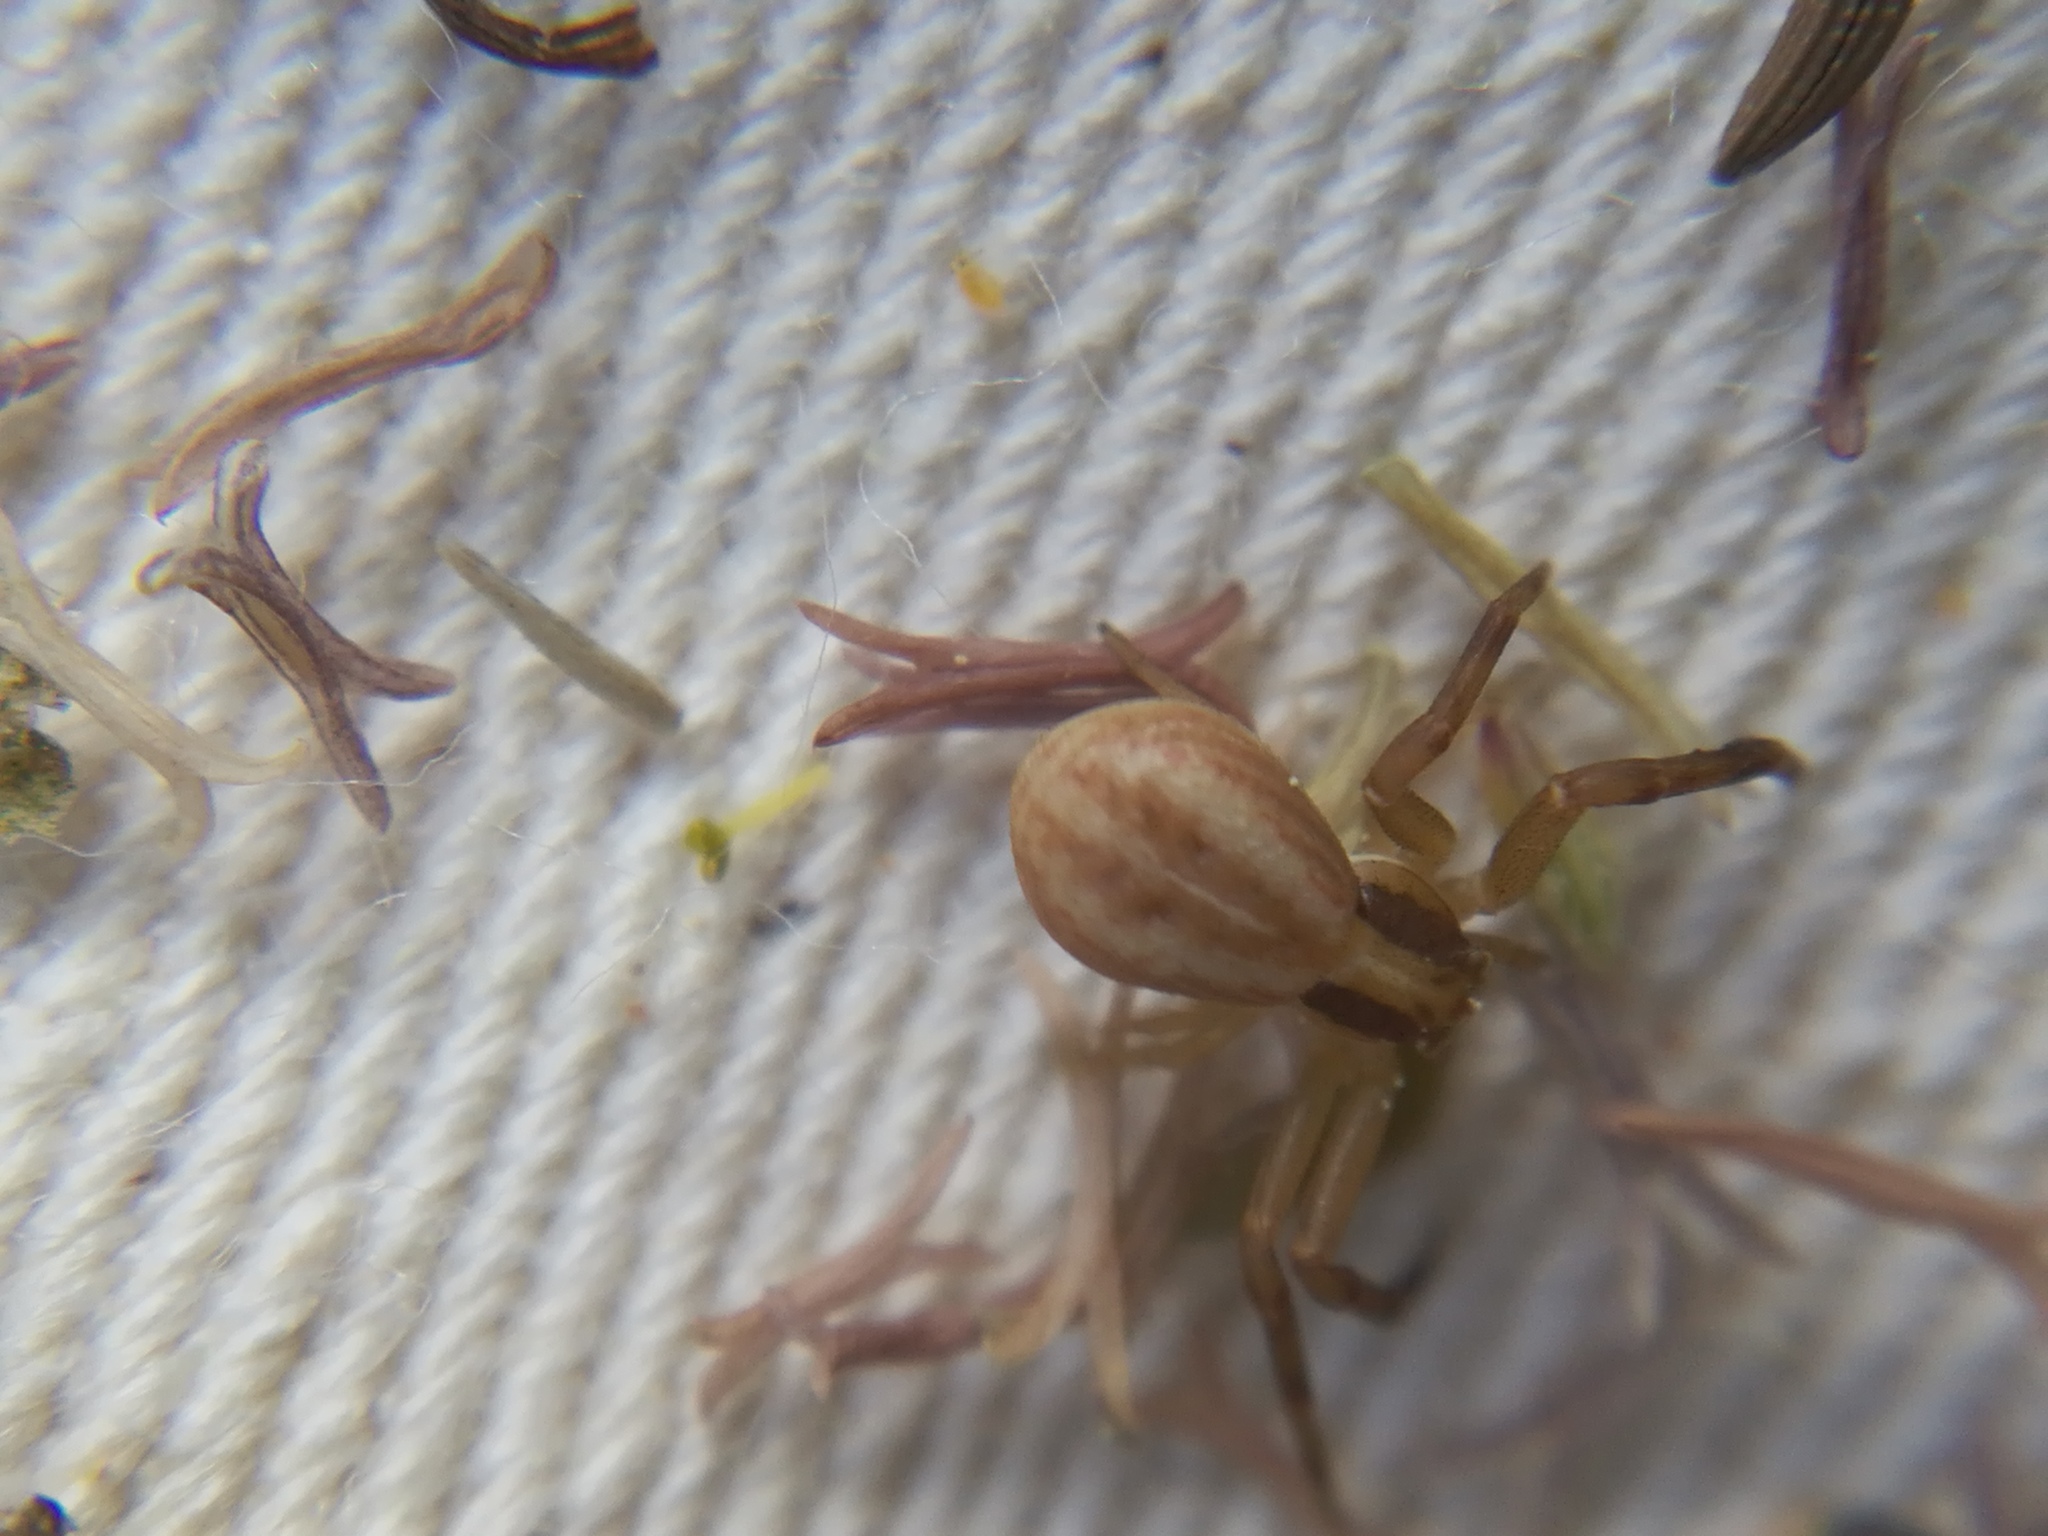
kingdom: Animalia
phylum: Arthropoda
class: Arachnida
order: Araneae
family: Thomisidae
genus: Runcinia
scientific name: Runcinia grammica
